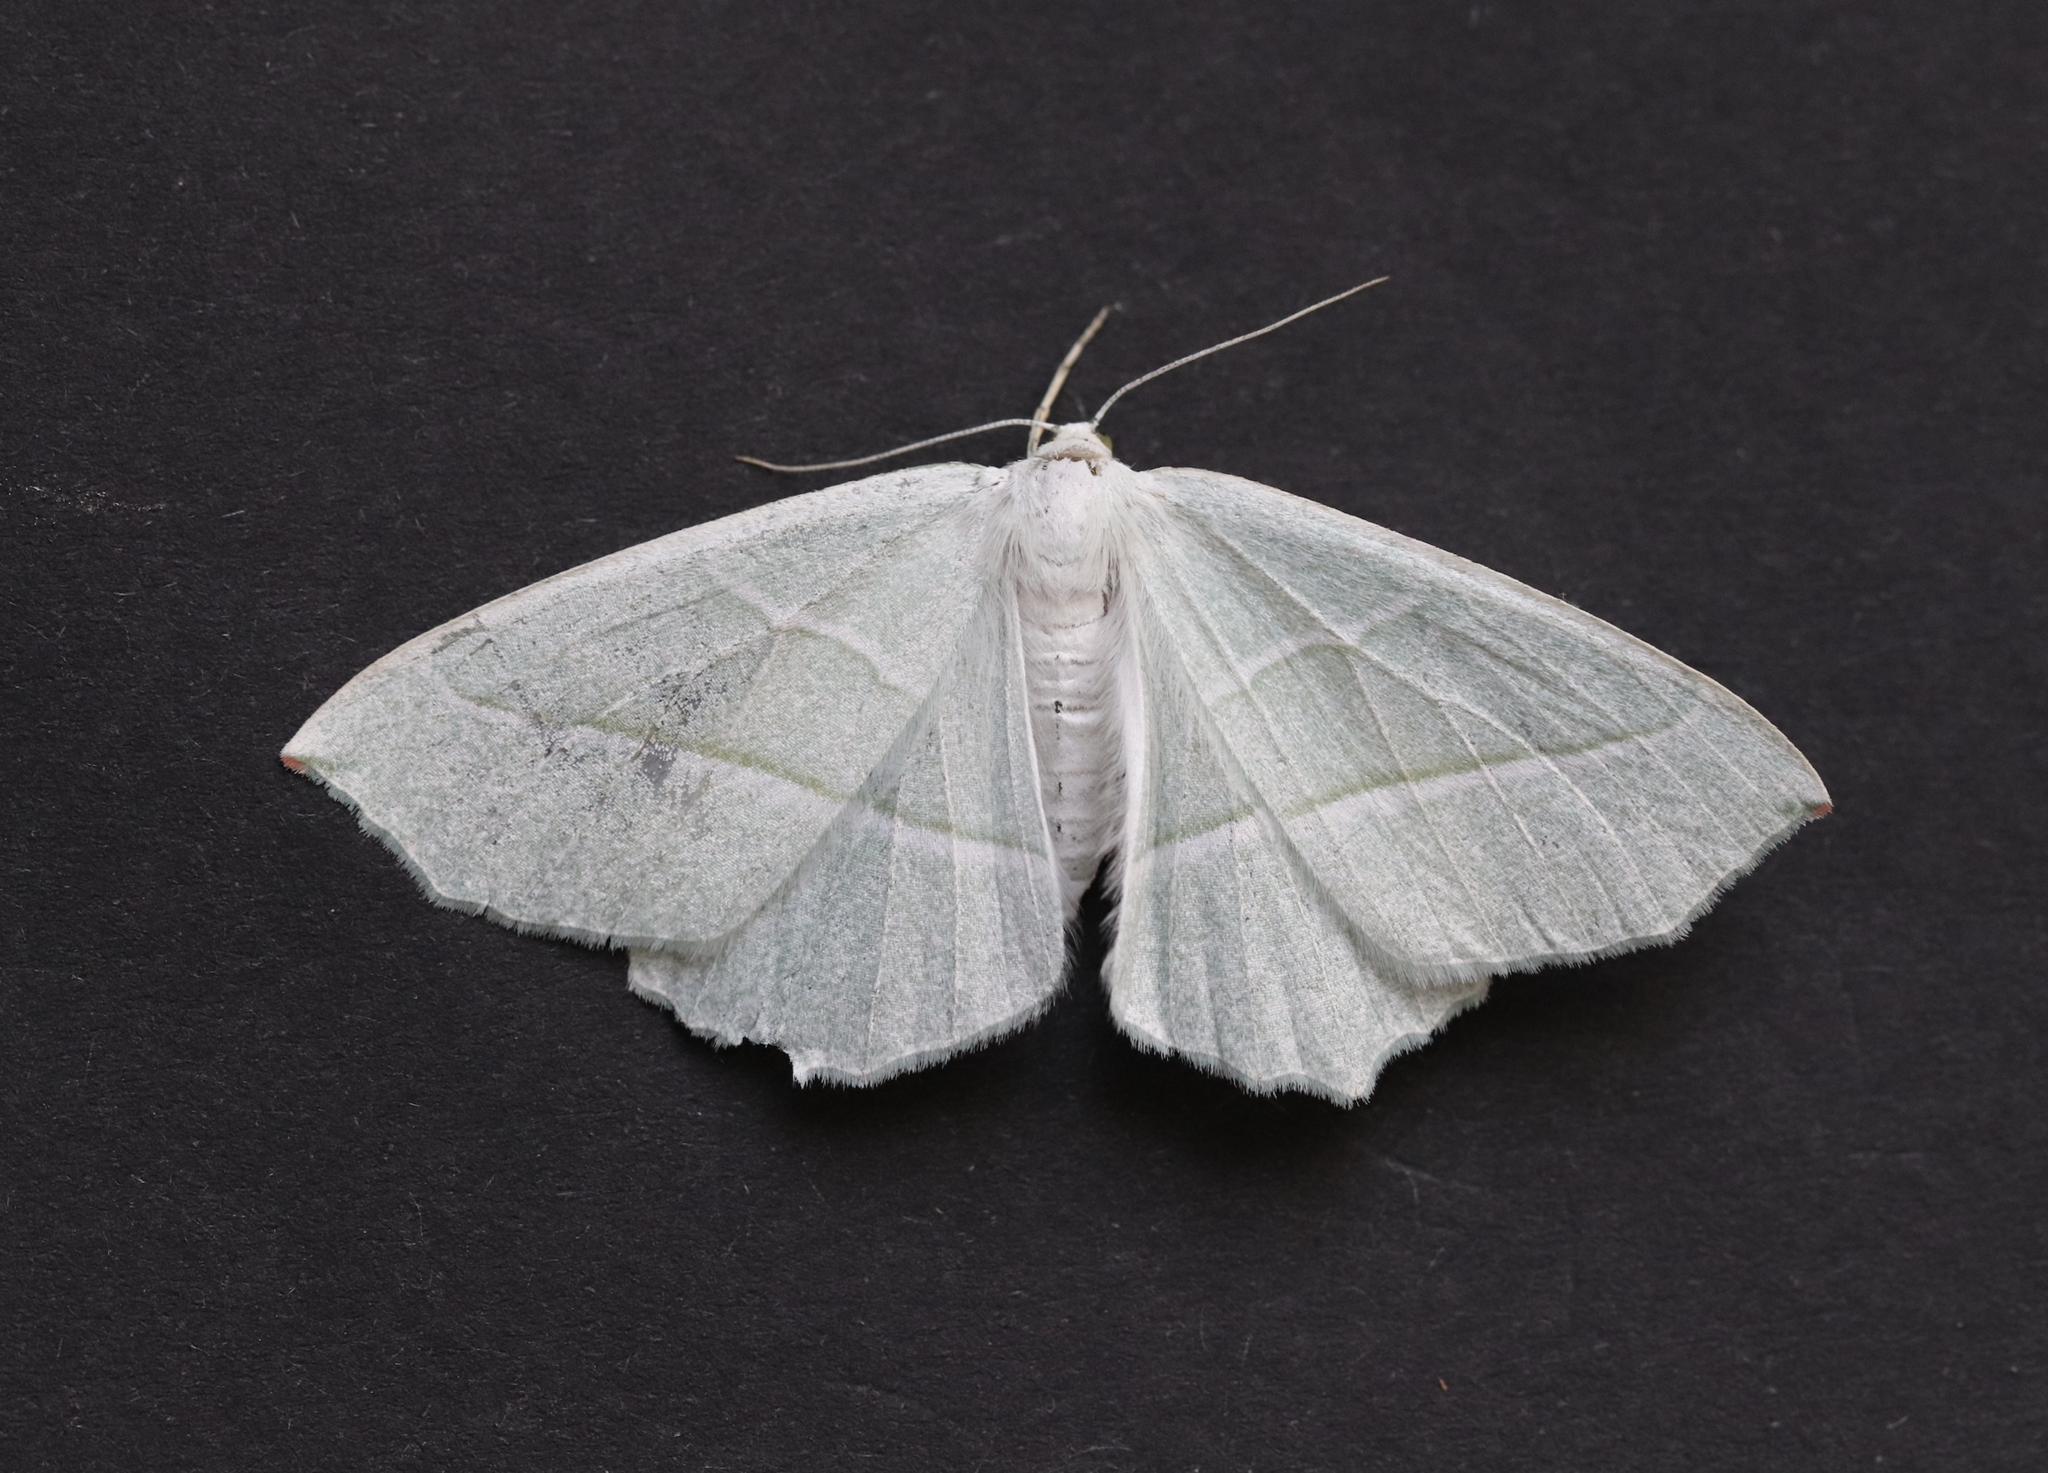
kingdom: Animalia
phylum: Arthropoda
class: Insecta
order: Lepidoptera
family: Geometridae
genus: Campaea
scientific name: Campaea margaritaria
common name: Light emerald
